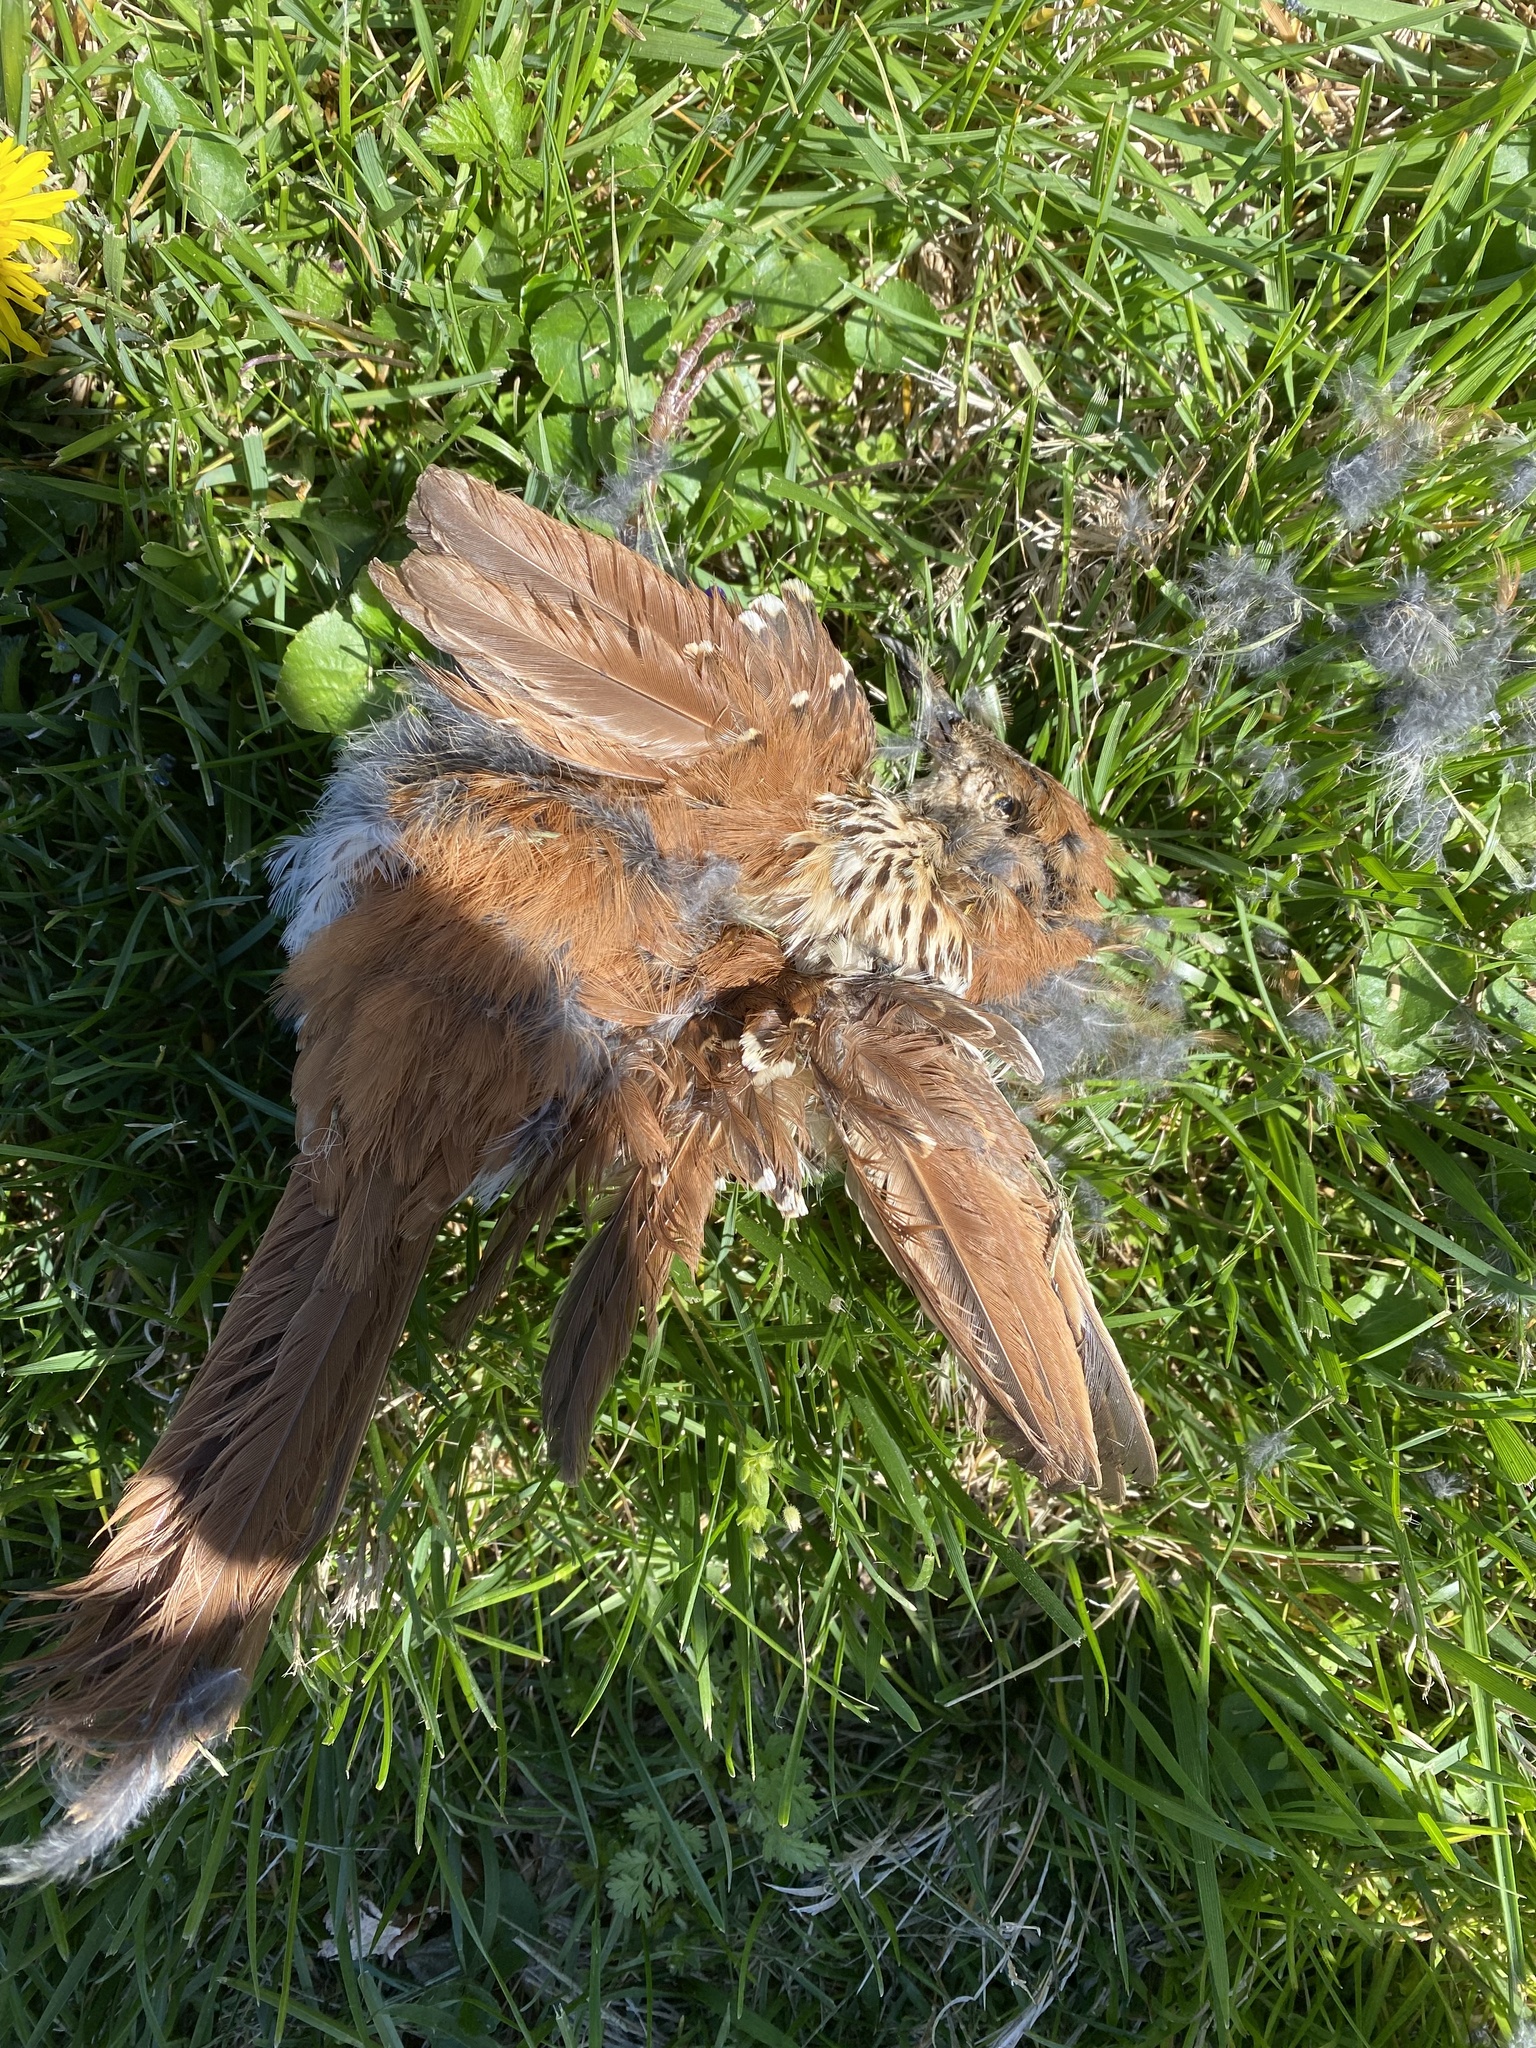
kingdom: Animalia
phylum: Chordata
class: Aves
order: Passeriformes
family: Mimidae
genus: Toxostoma
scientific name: Toxostoma rufum
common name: Brown thrasher
